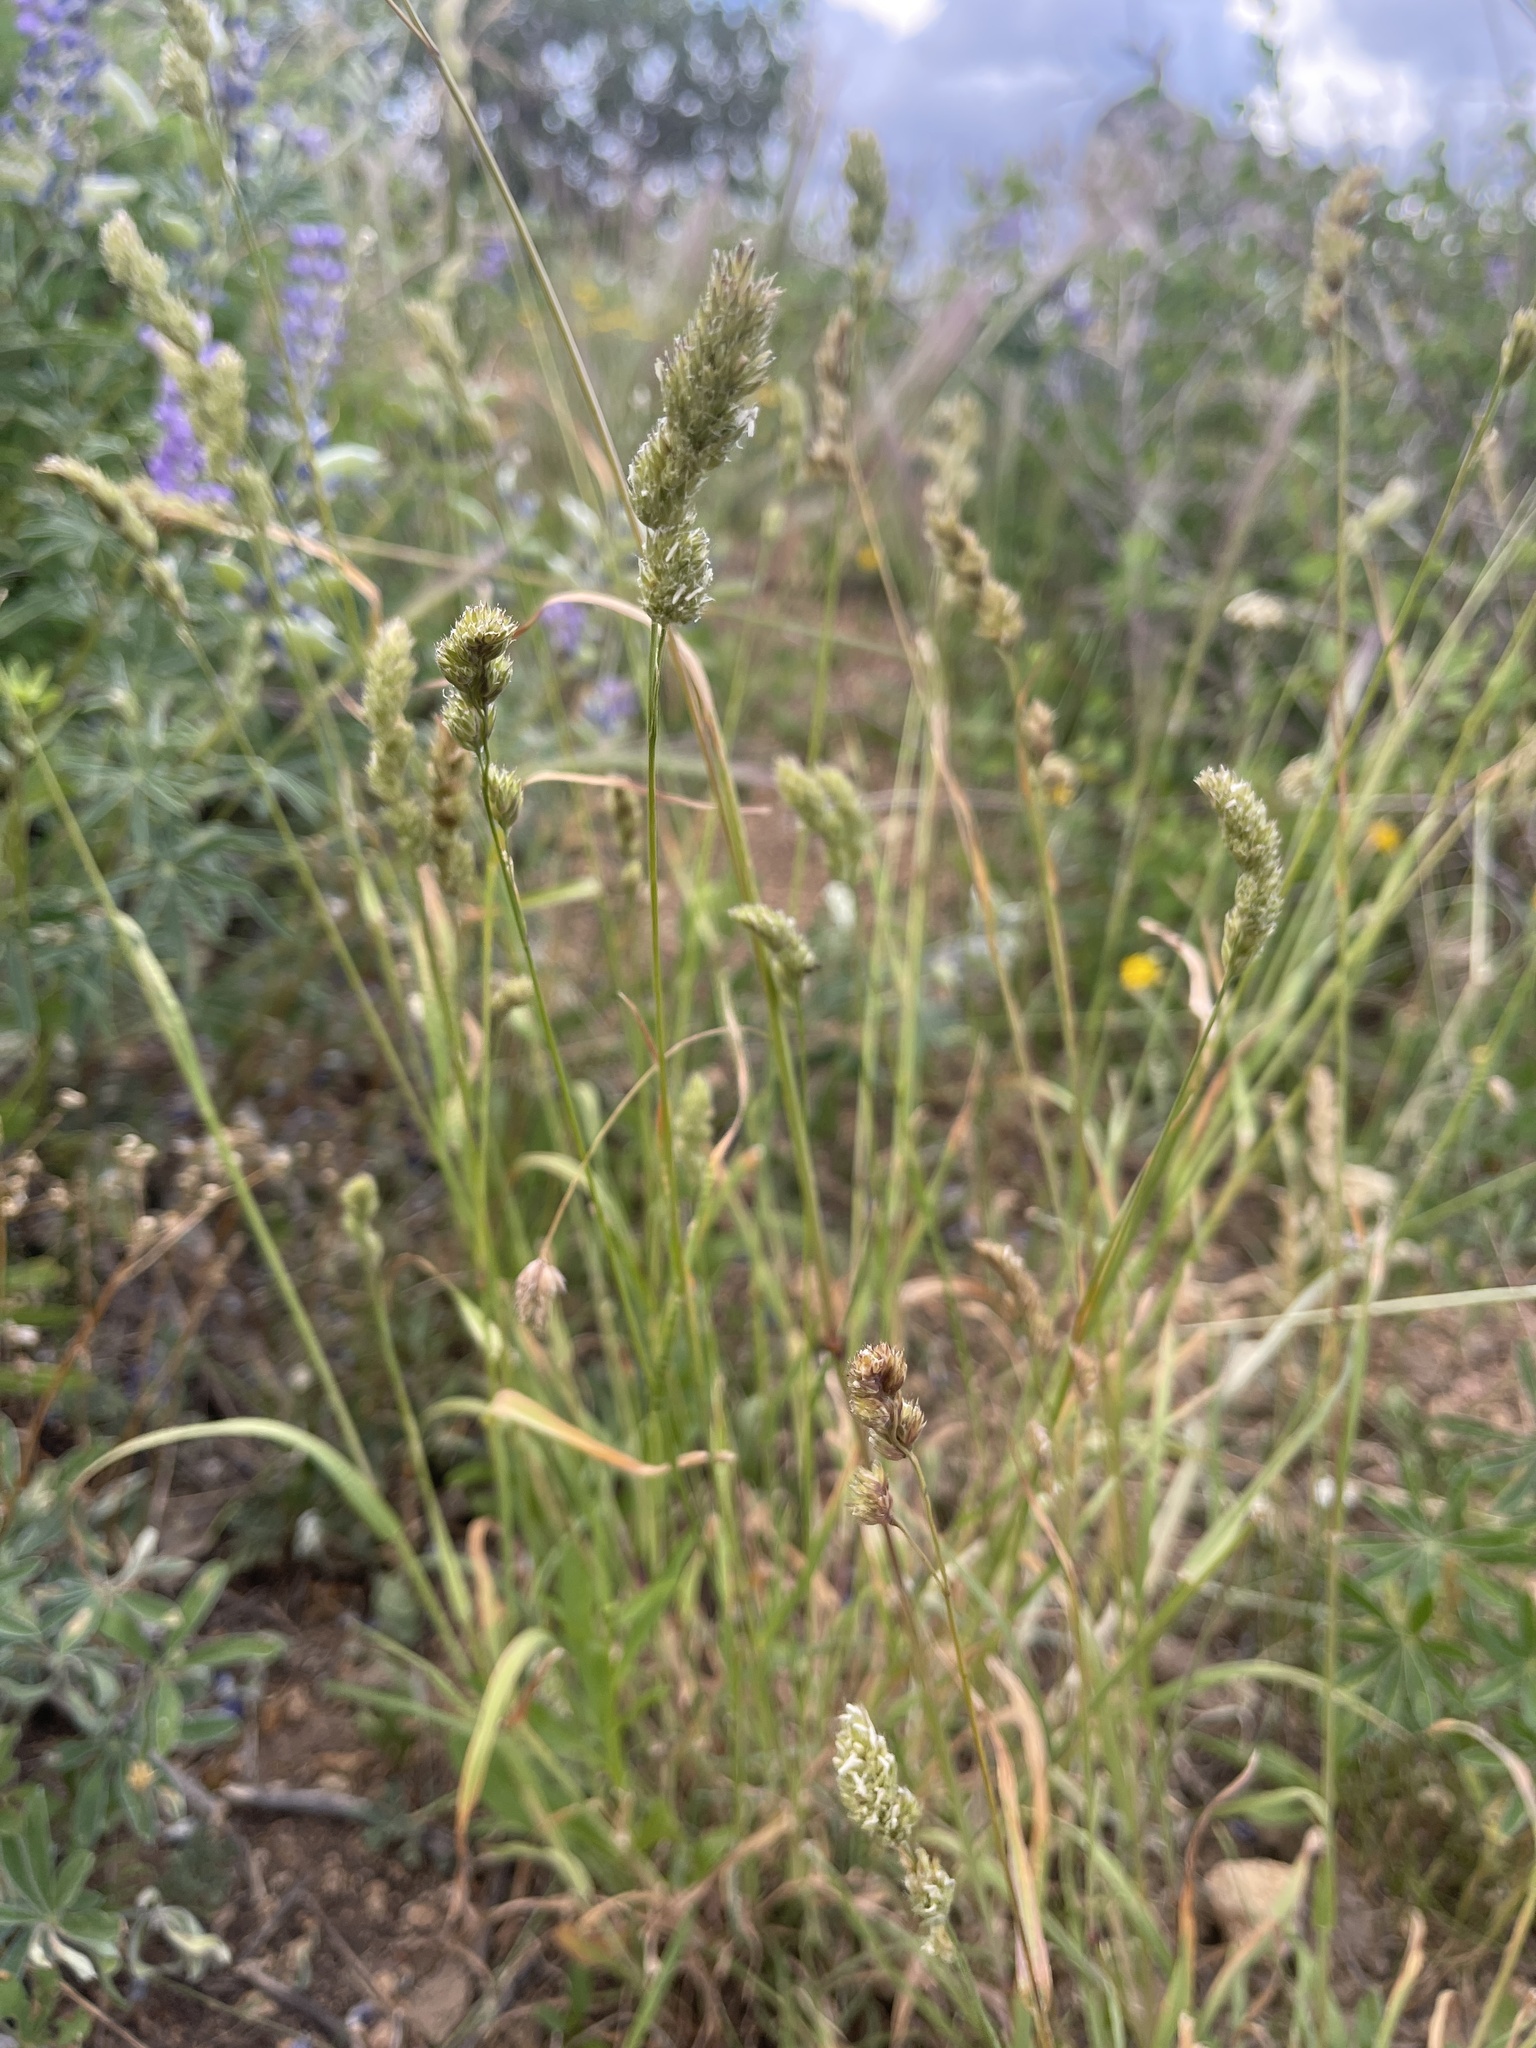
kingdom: Plantae
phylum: Tracheophyta
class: Liliopsida
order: Poales
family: Poaceae
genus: Dactylis
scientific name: Dactylis glomerata
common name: Orchardgrass
